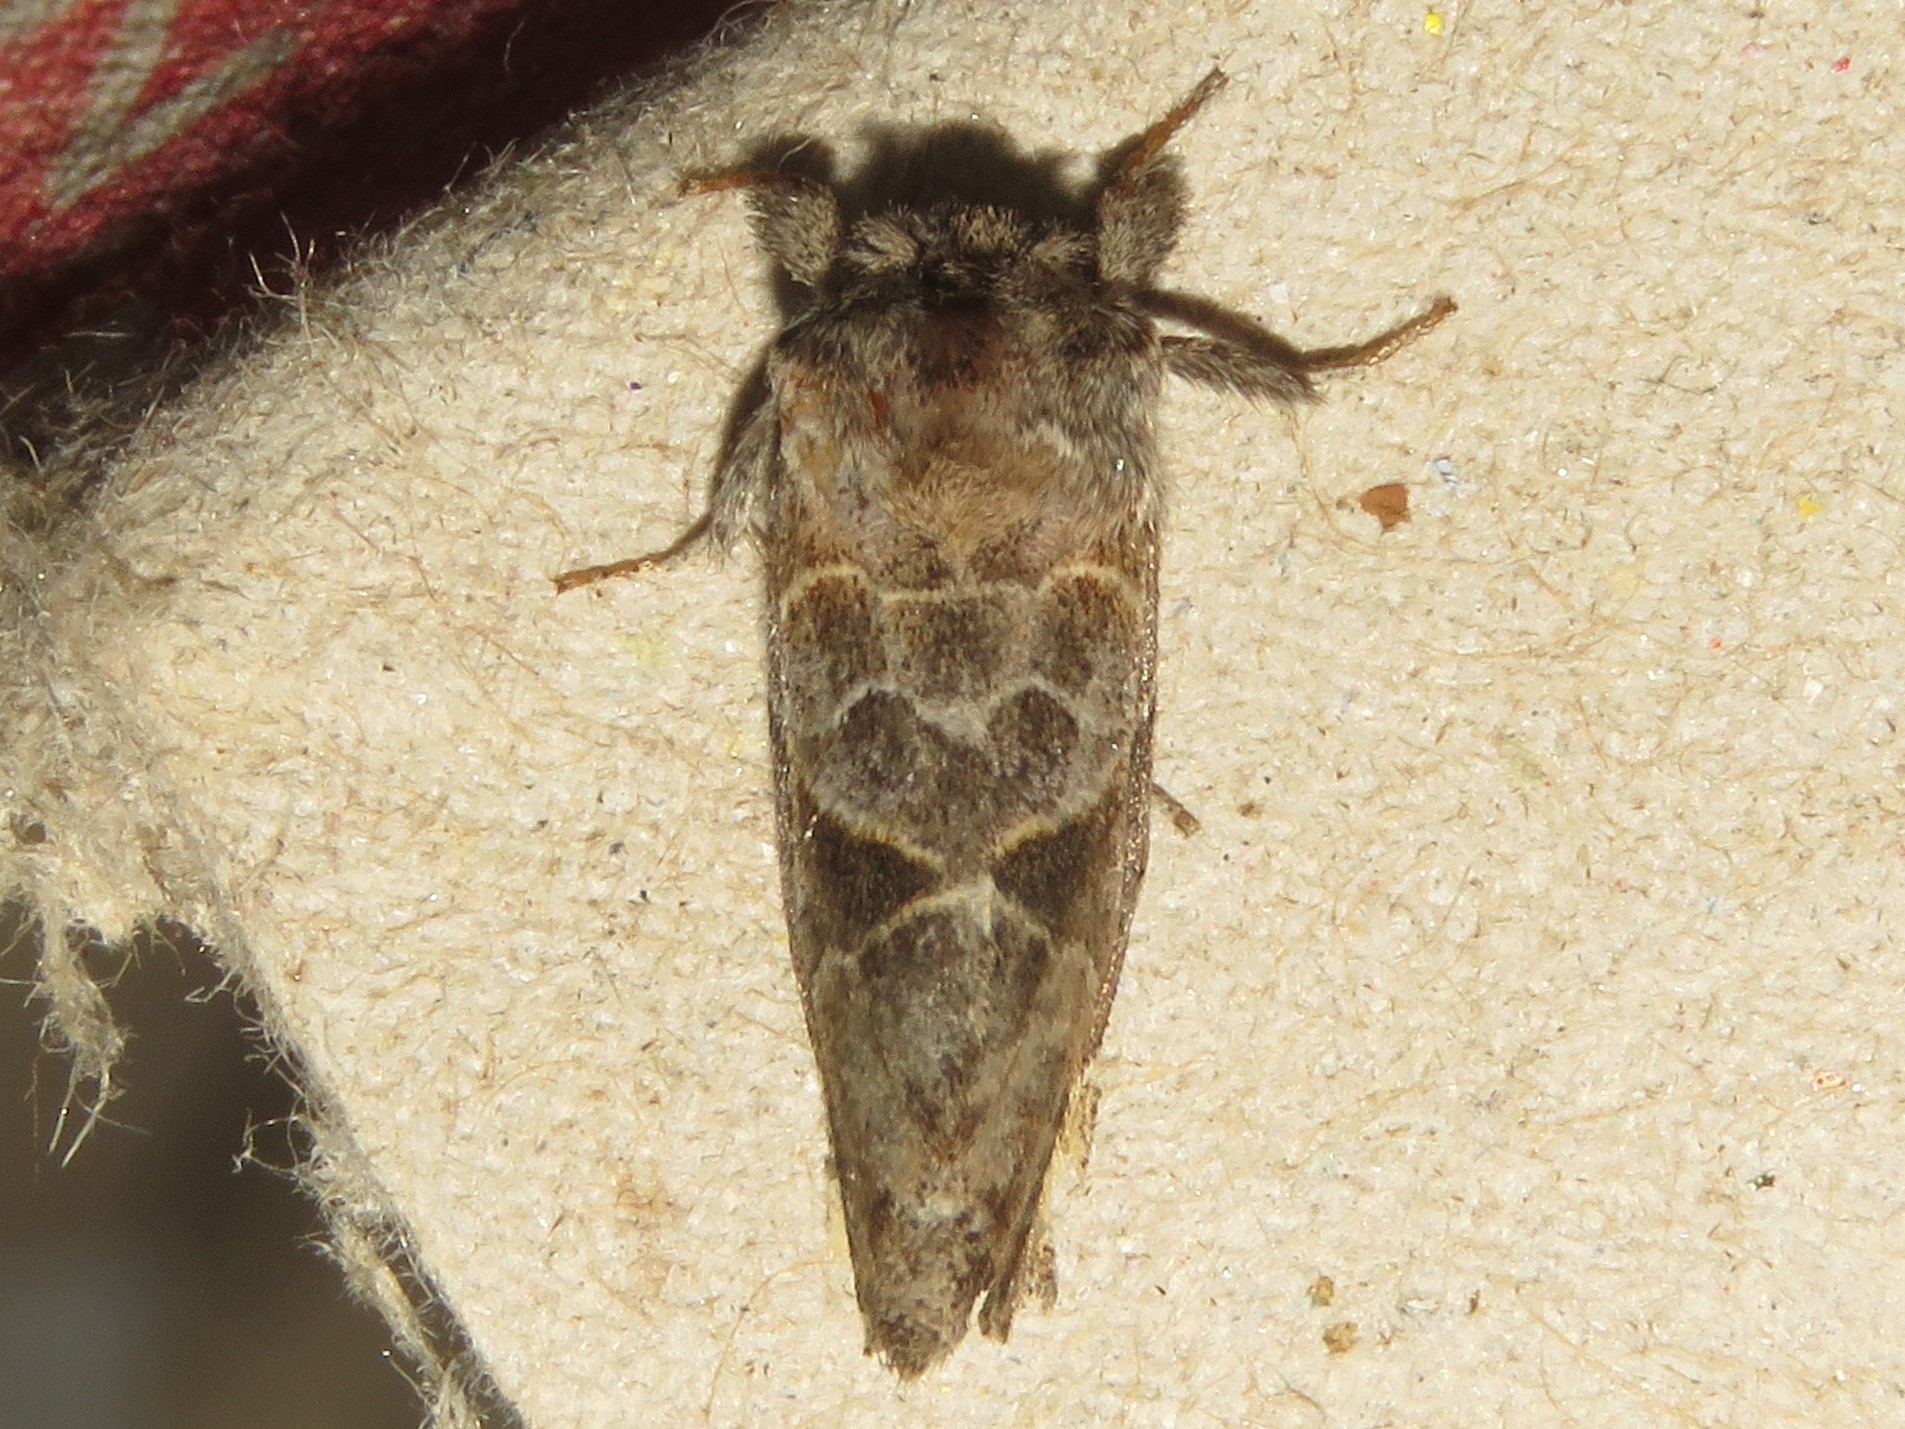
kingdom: Animalia
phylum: Arthropoda
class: Insecta
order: Lepidoptera
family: Notodontidae
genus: Clostera
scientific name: Clostera strigosa
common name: Striped chocolate-tip moth
